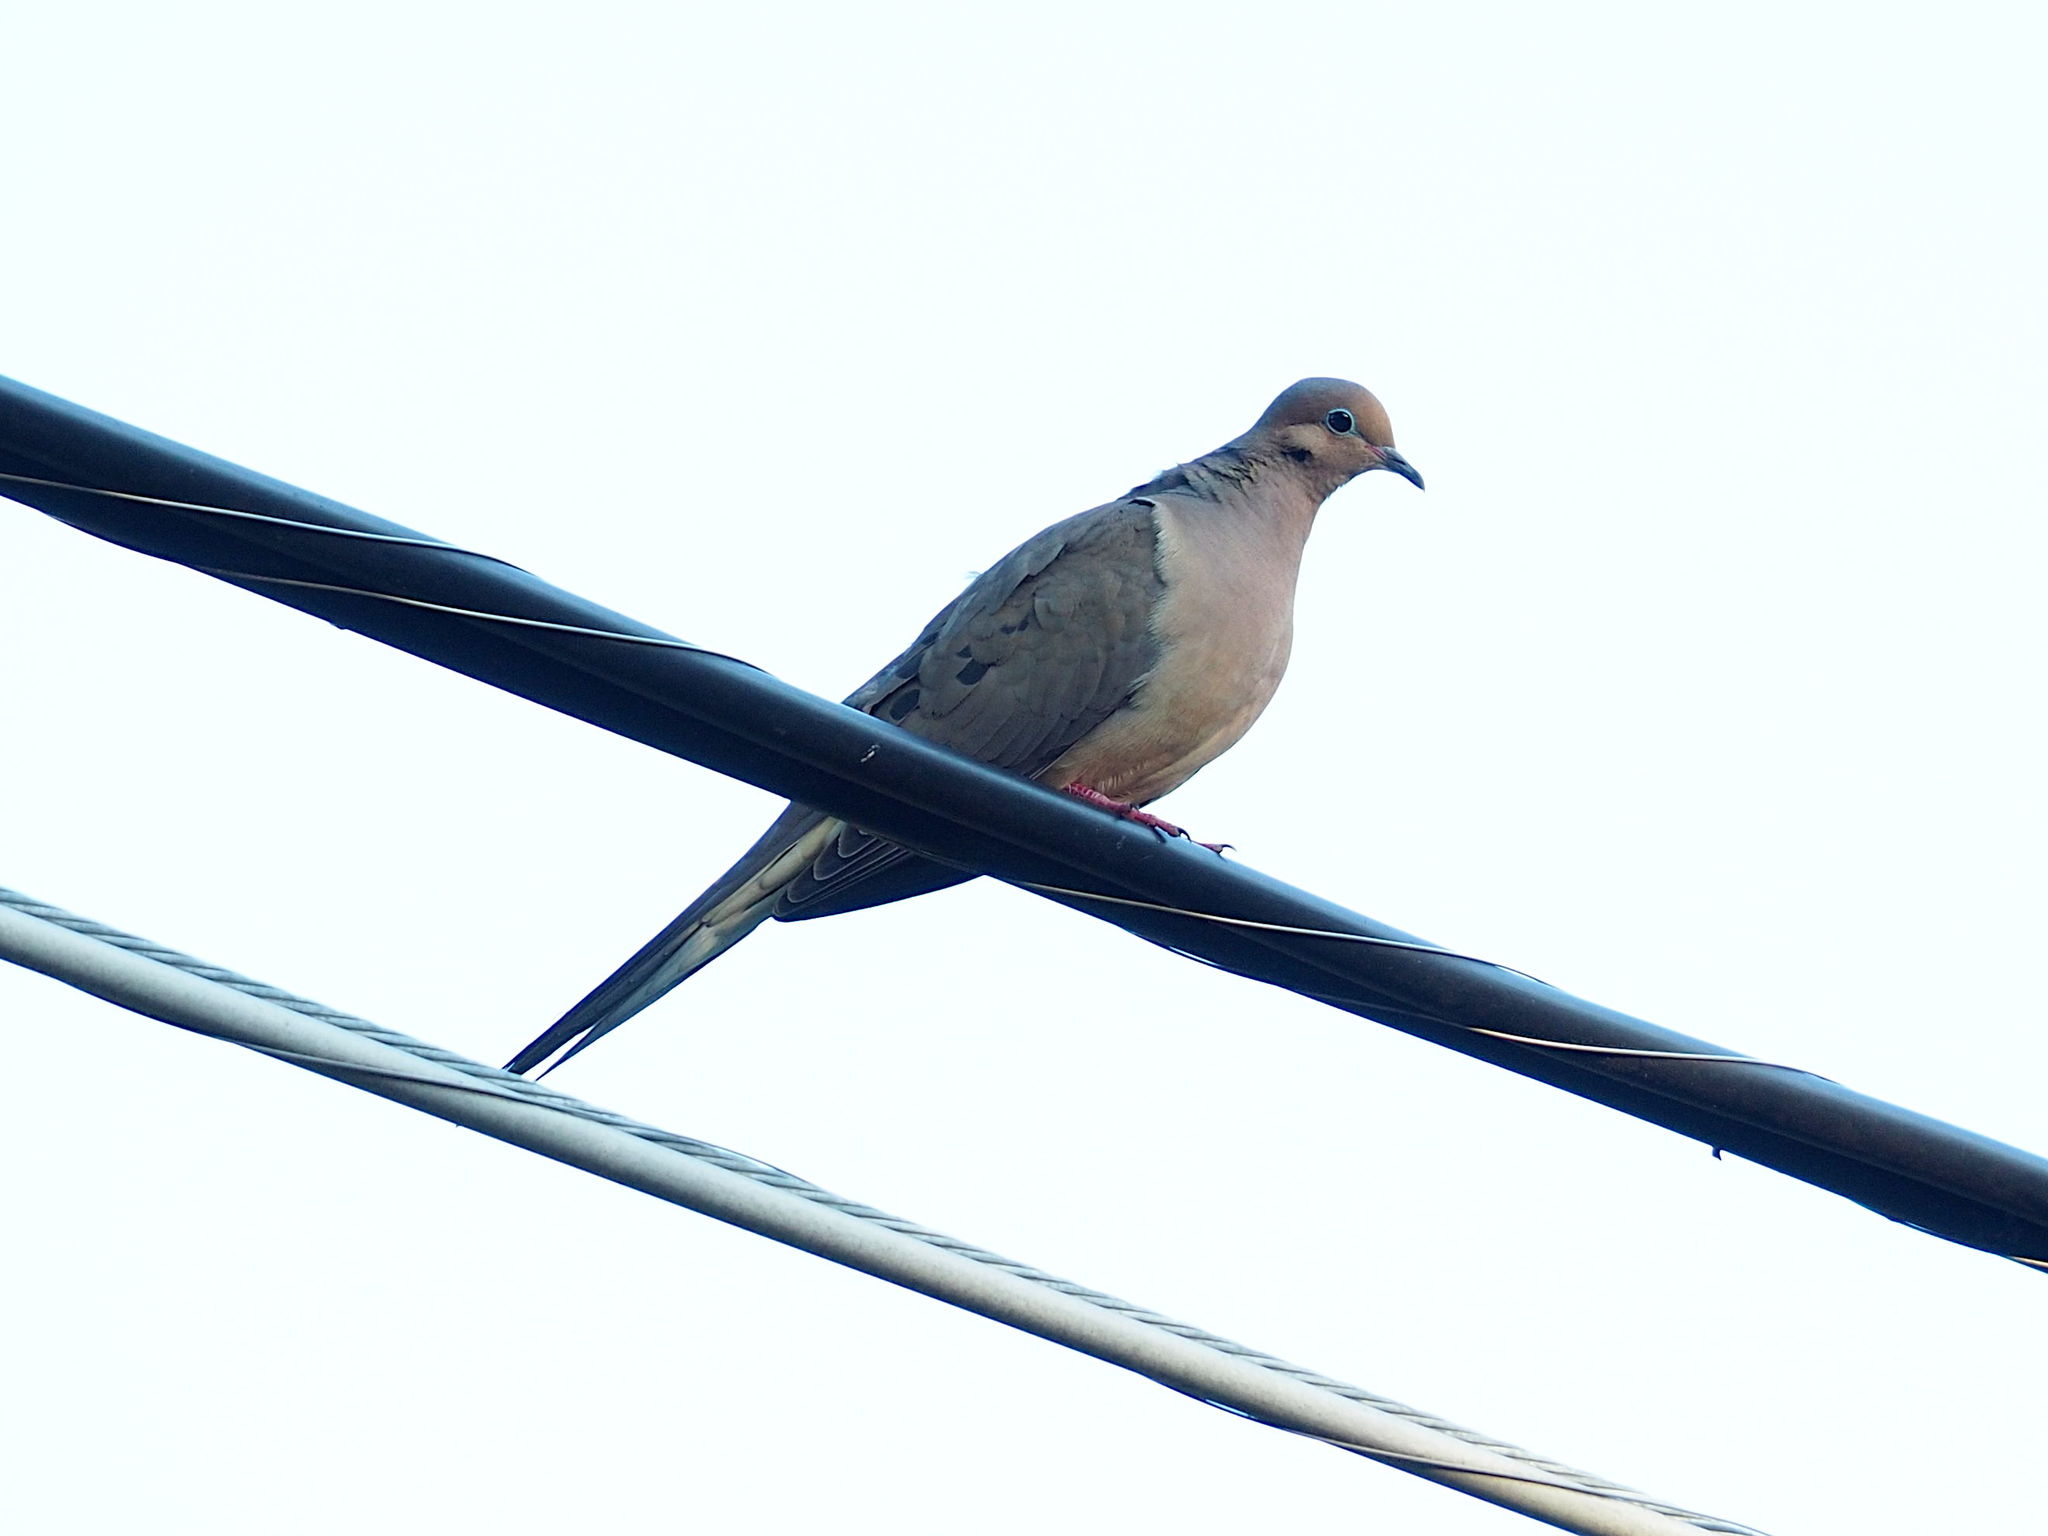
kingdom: Animalia
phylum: Chordata
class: Aves
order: Columbiformes
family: Columbidae
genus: Zenaida
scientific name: Zenaida macroura
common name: Mourning dove
